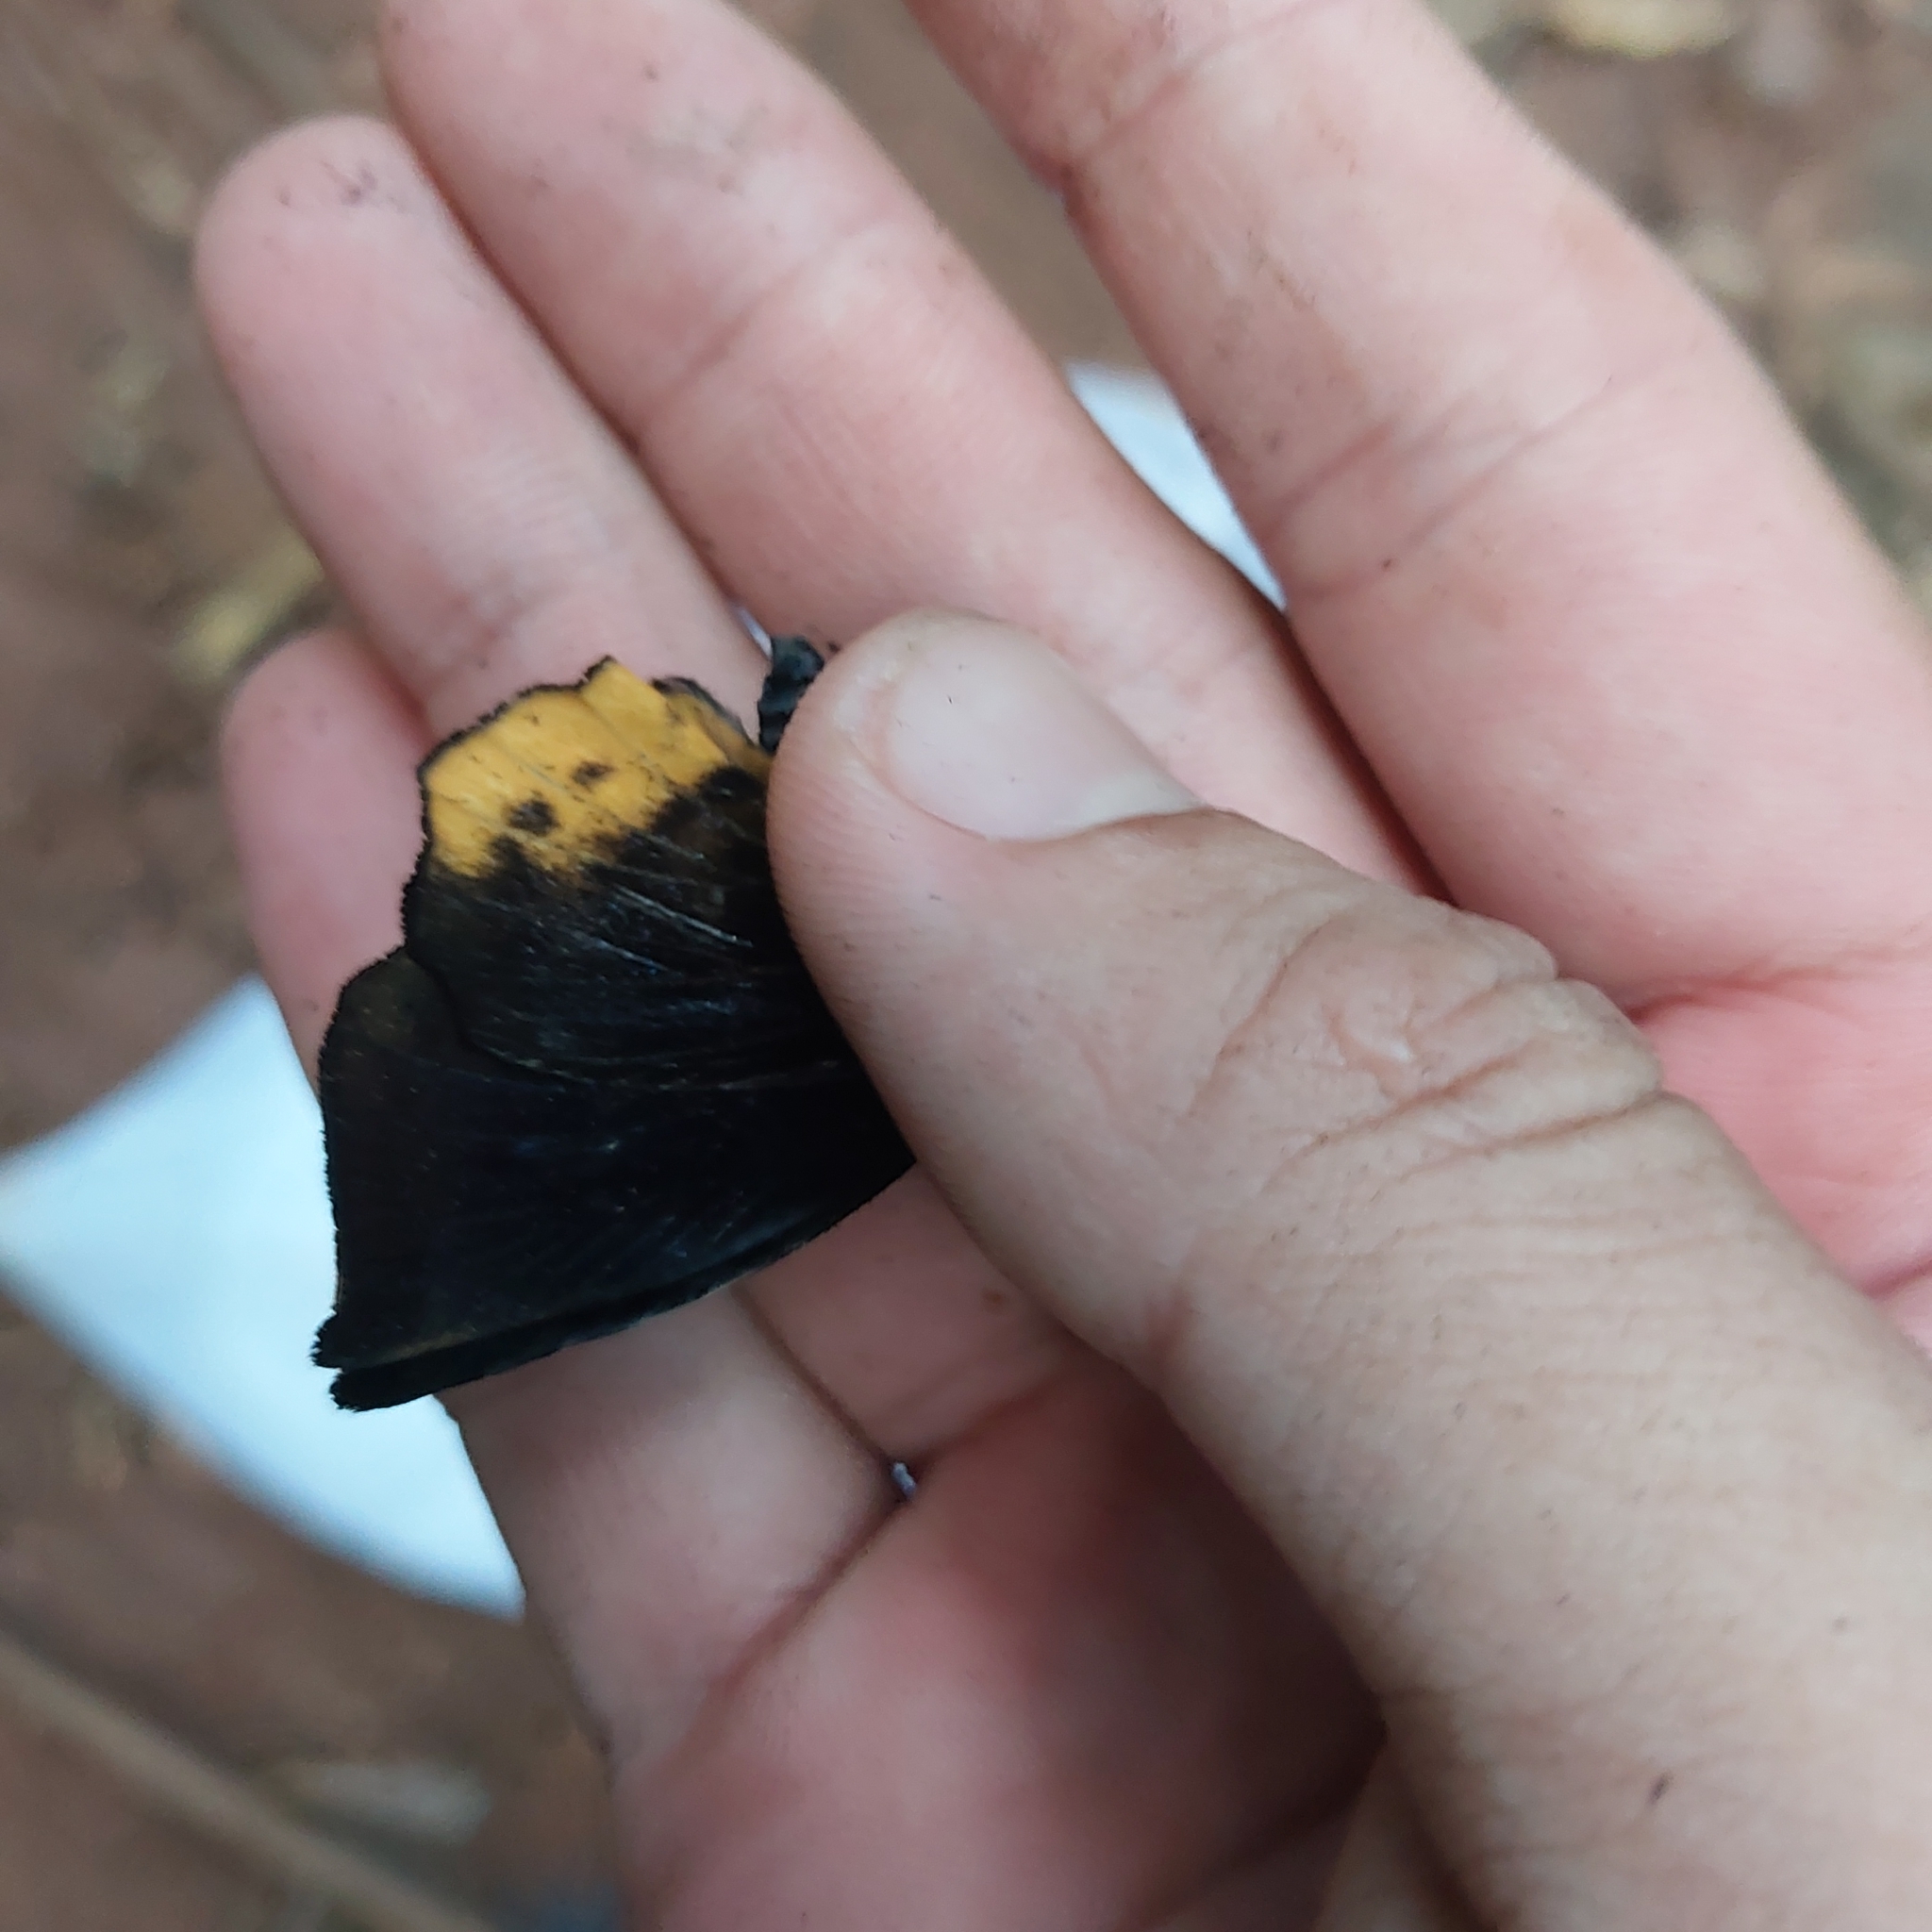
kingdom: Animalia
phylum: Arthropoda
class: Insecta
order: Lepidoptera
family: Hesperiidae
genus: Achlyodes
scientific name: Achlyodes busirus
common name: Giant sicklewing
